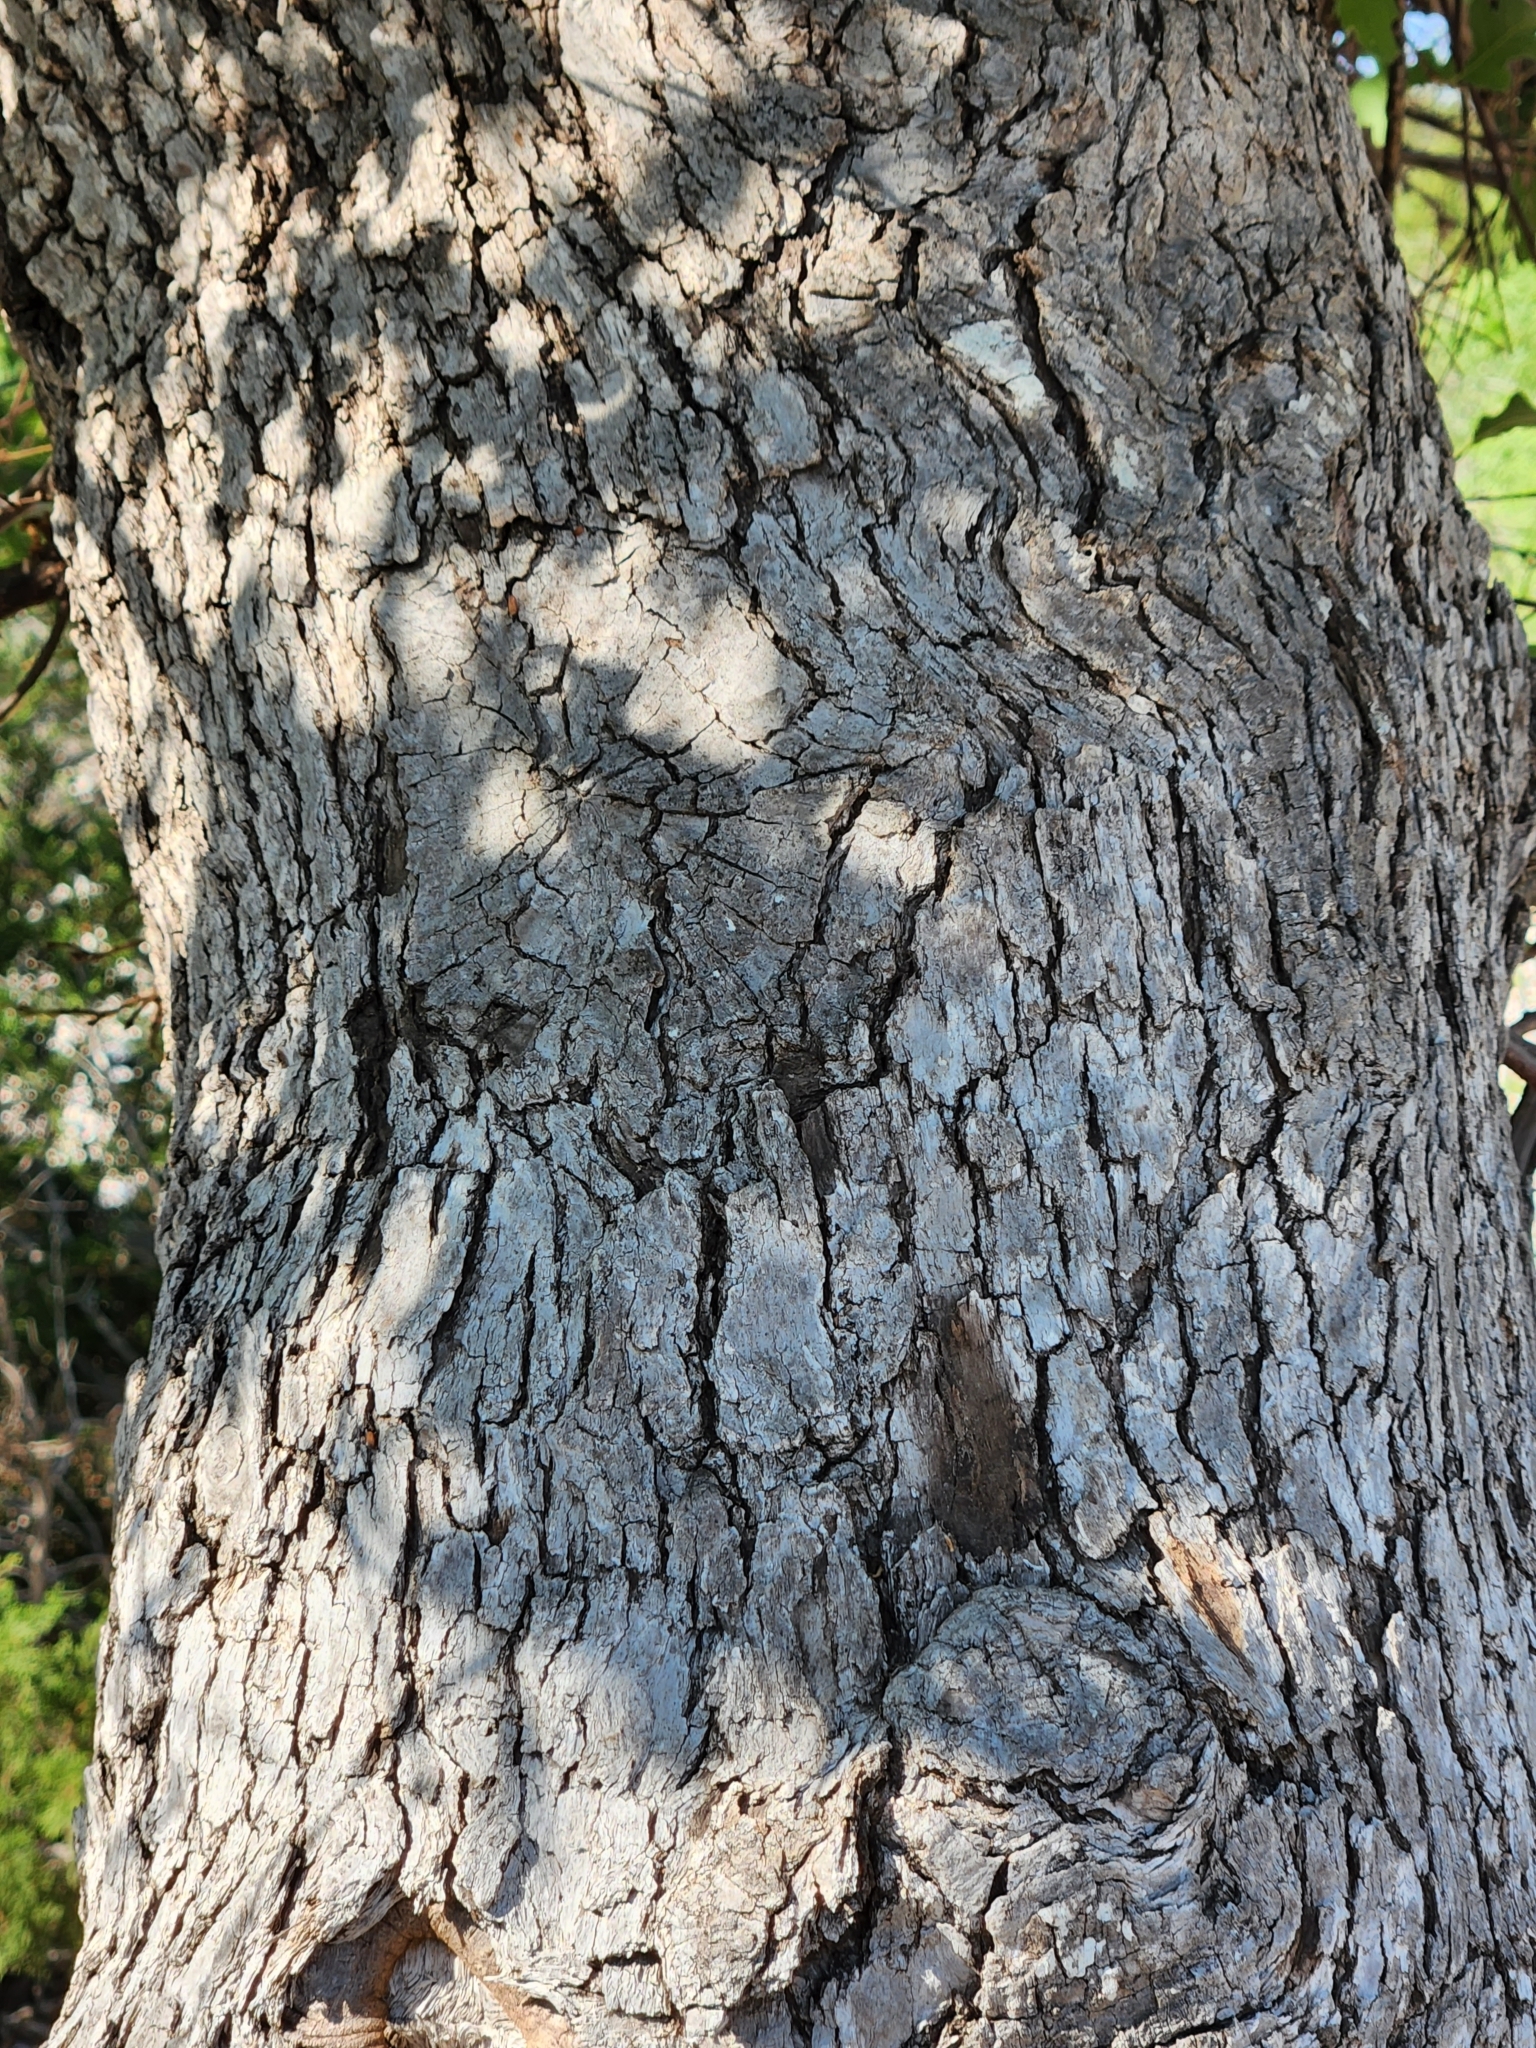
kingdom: Plantae
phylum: Tracheophyta
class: Magnoliopsida
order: Fagales
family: Fagaceae
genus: Quercus
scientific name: Quercus laceyi
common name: Lacey oak
